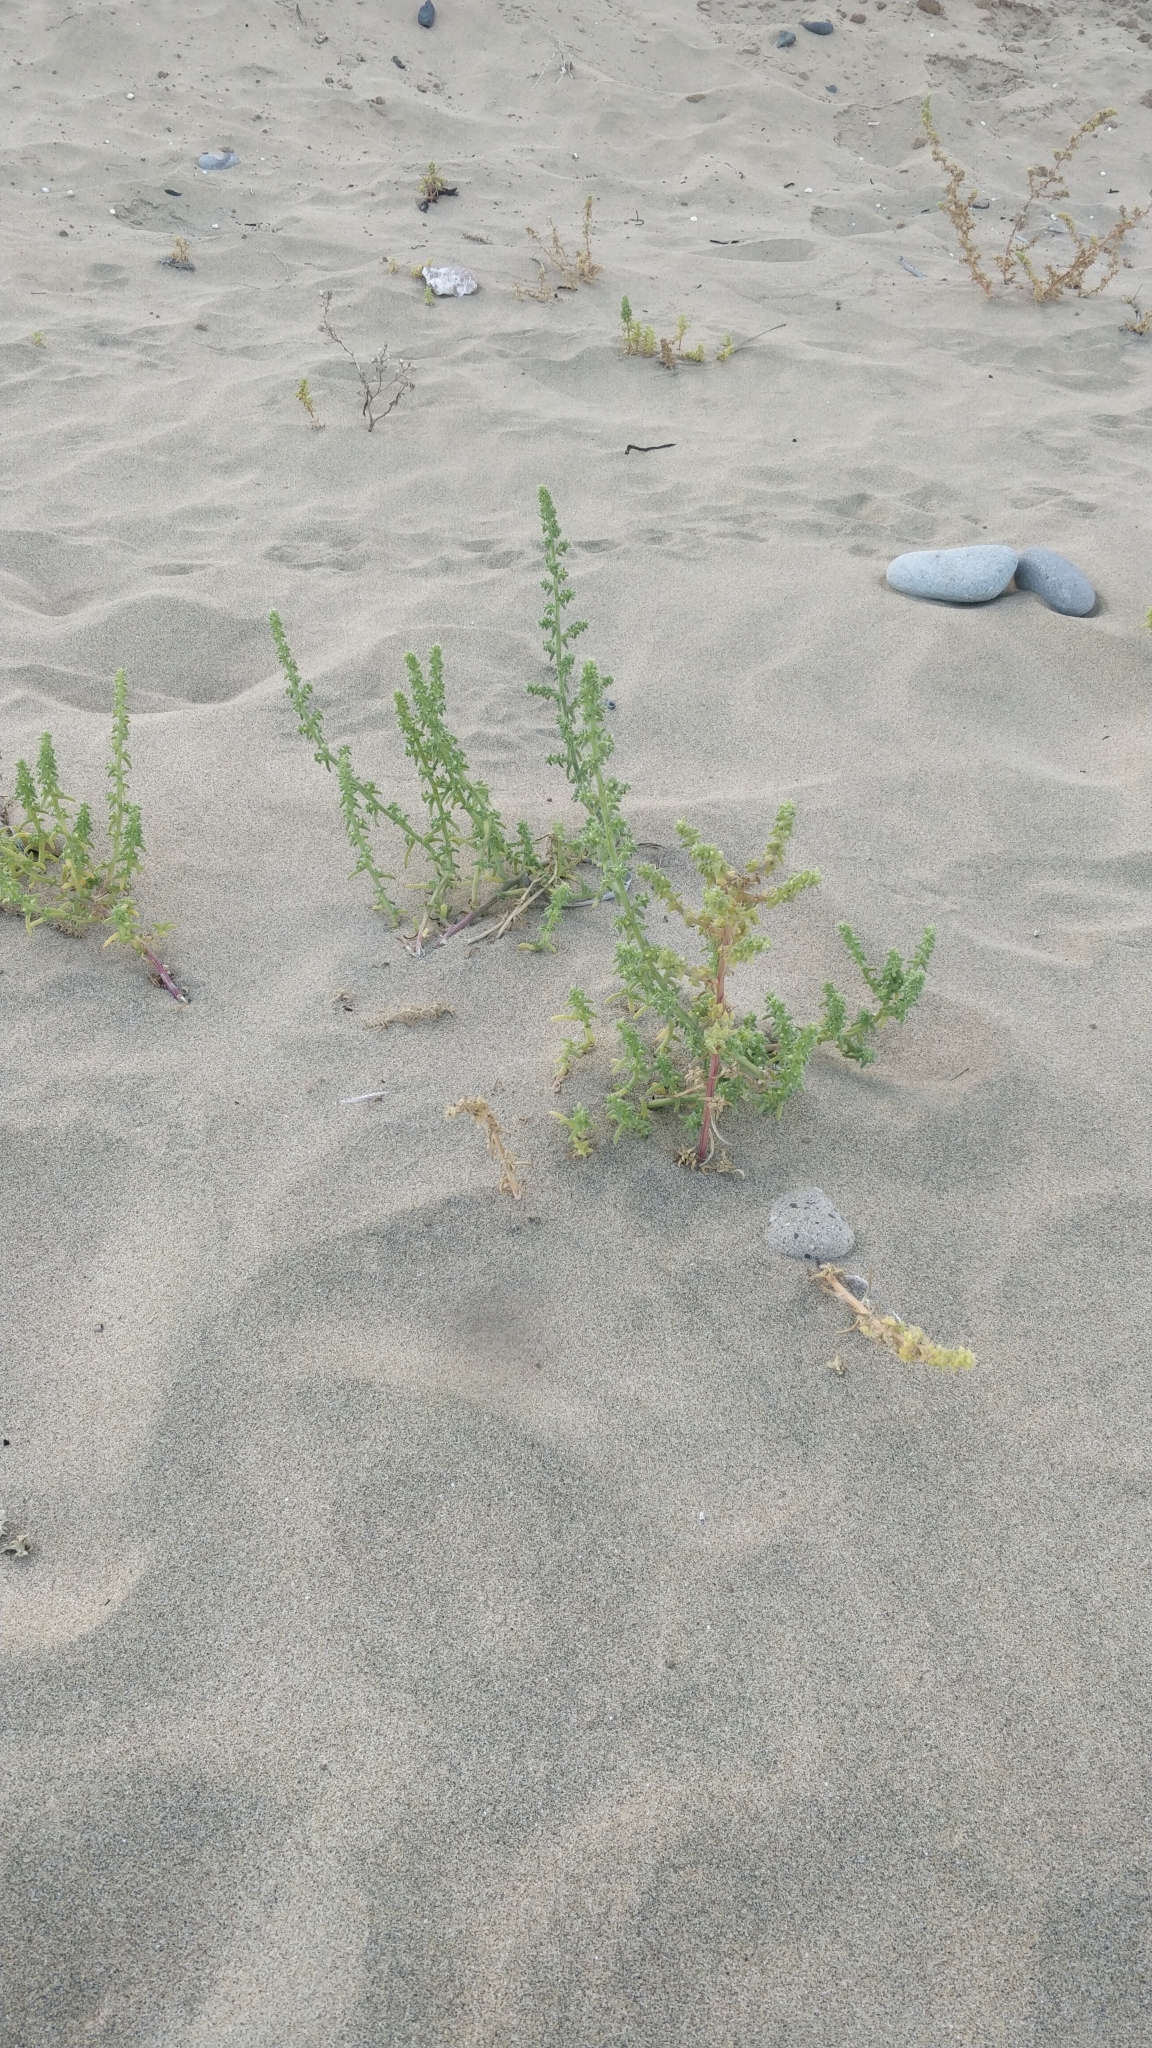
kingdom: Plantae
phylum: Tracheophyta
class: Magnoliopsida
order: Caryophyllales
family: Amaranthaceae
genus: Salsola
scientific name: Salsola kali
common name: Saltwort
